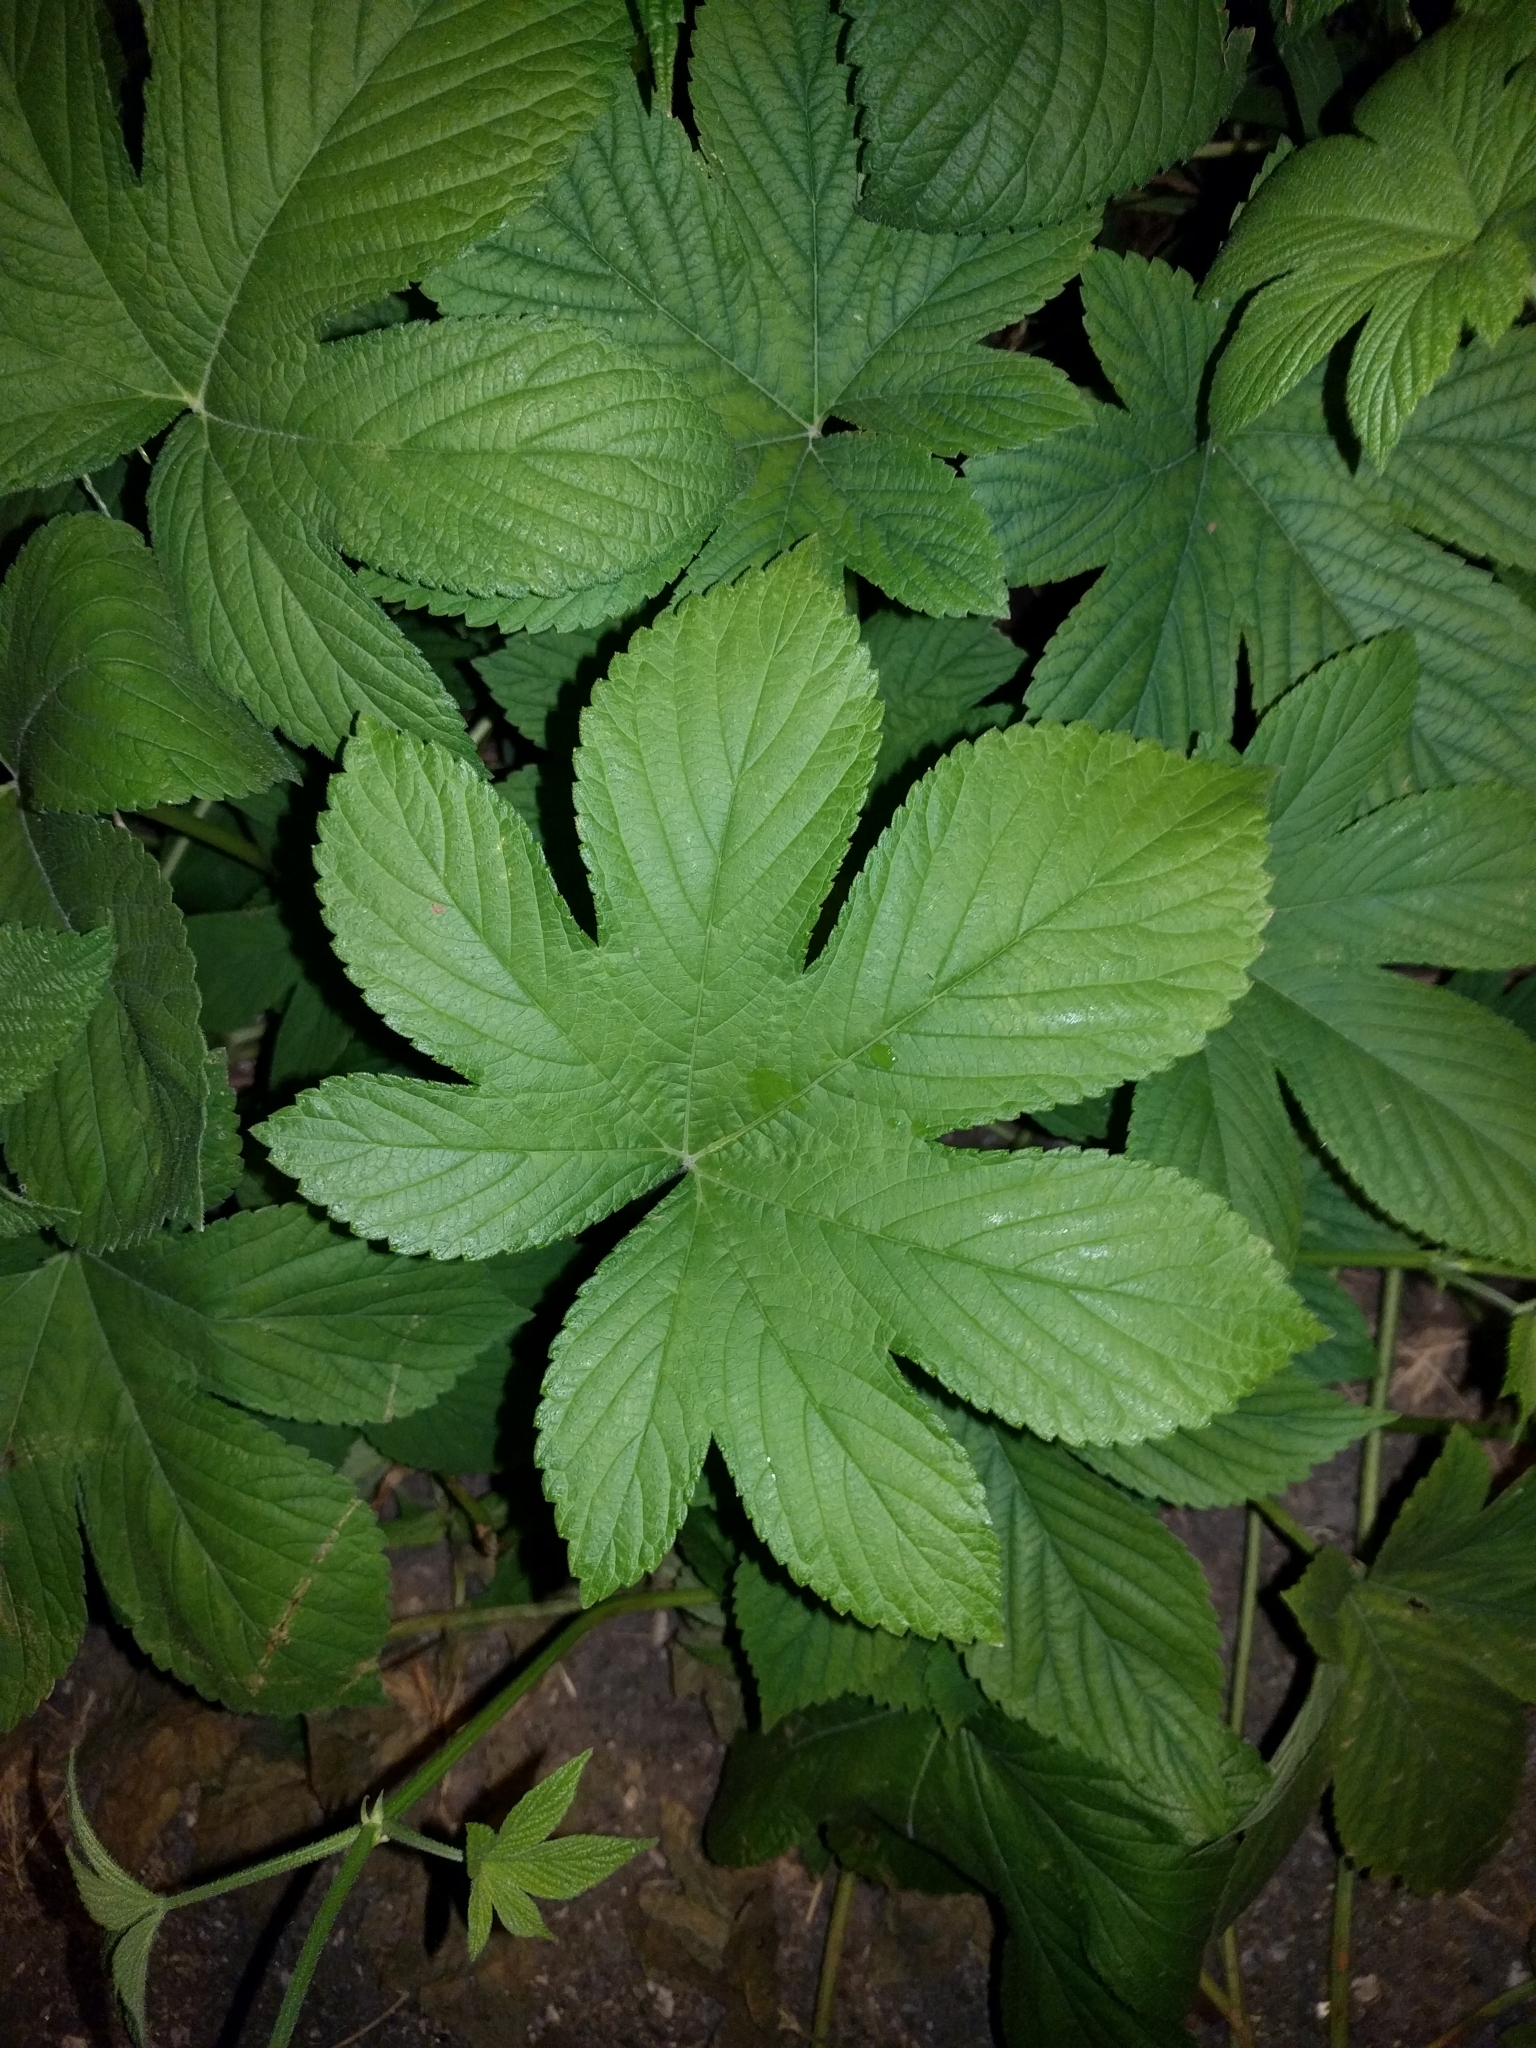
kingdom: Plantae
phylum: Tracheophyta
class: Magnoliopsida
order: Rosales
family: Cannabaceae
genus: Humulus
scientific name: Humulus scandens
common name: Japanese hop
